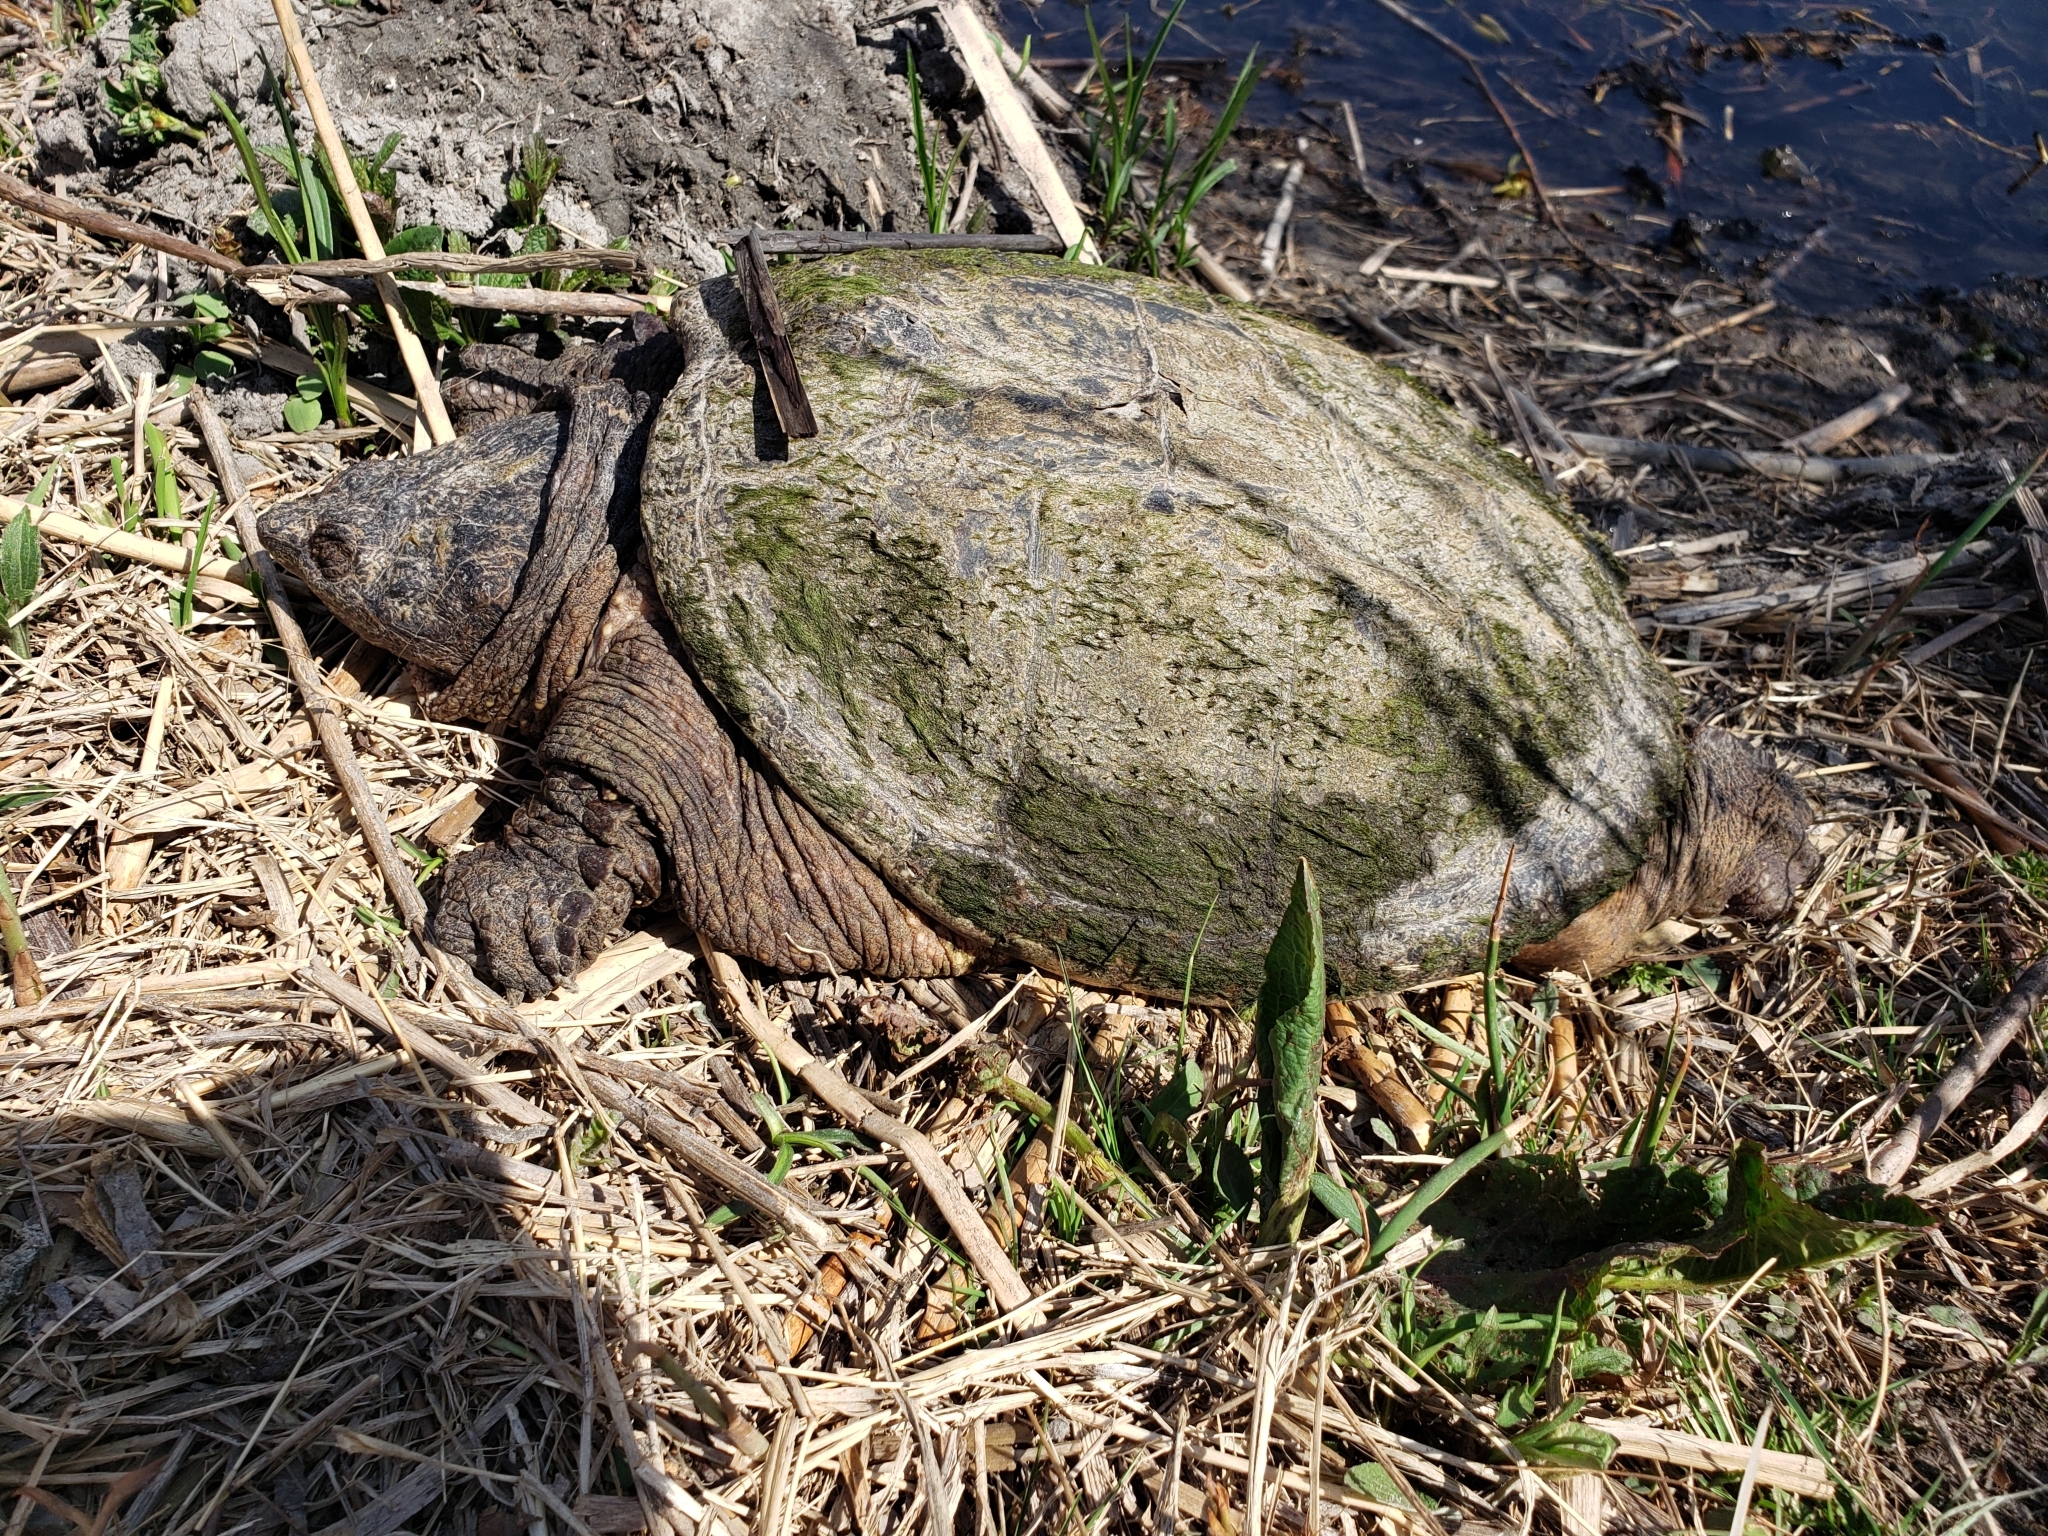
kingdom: Animalia
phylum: Chordata
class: Testudines
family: Chelydridae
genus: Chelydra
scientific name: Chelydra serpentina
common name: Common snapping turtle
